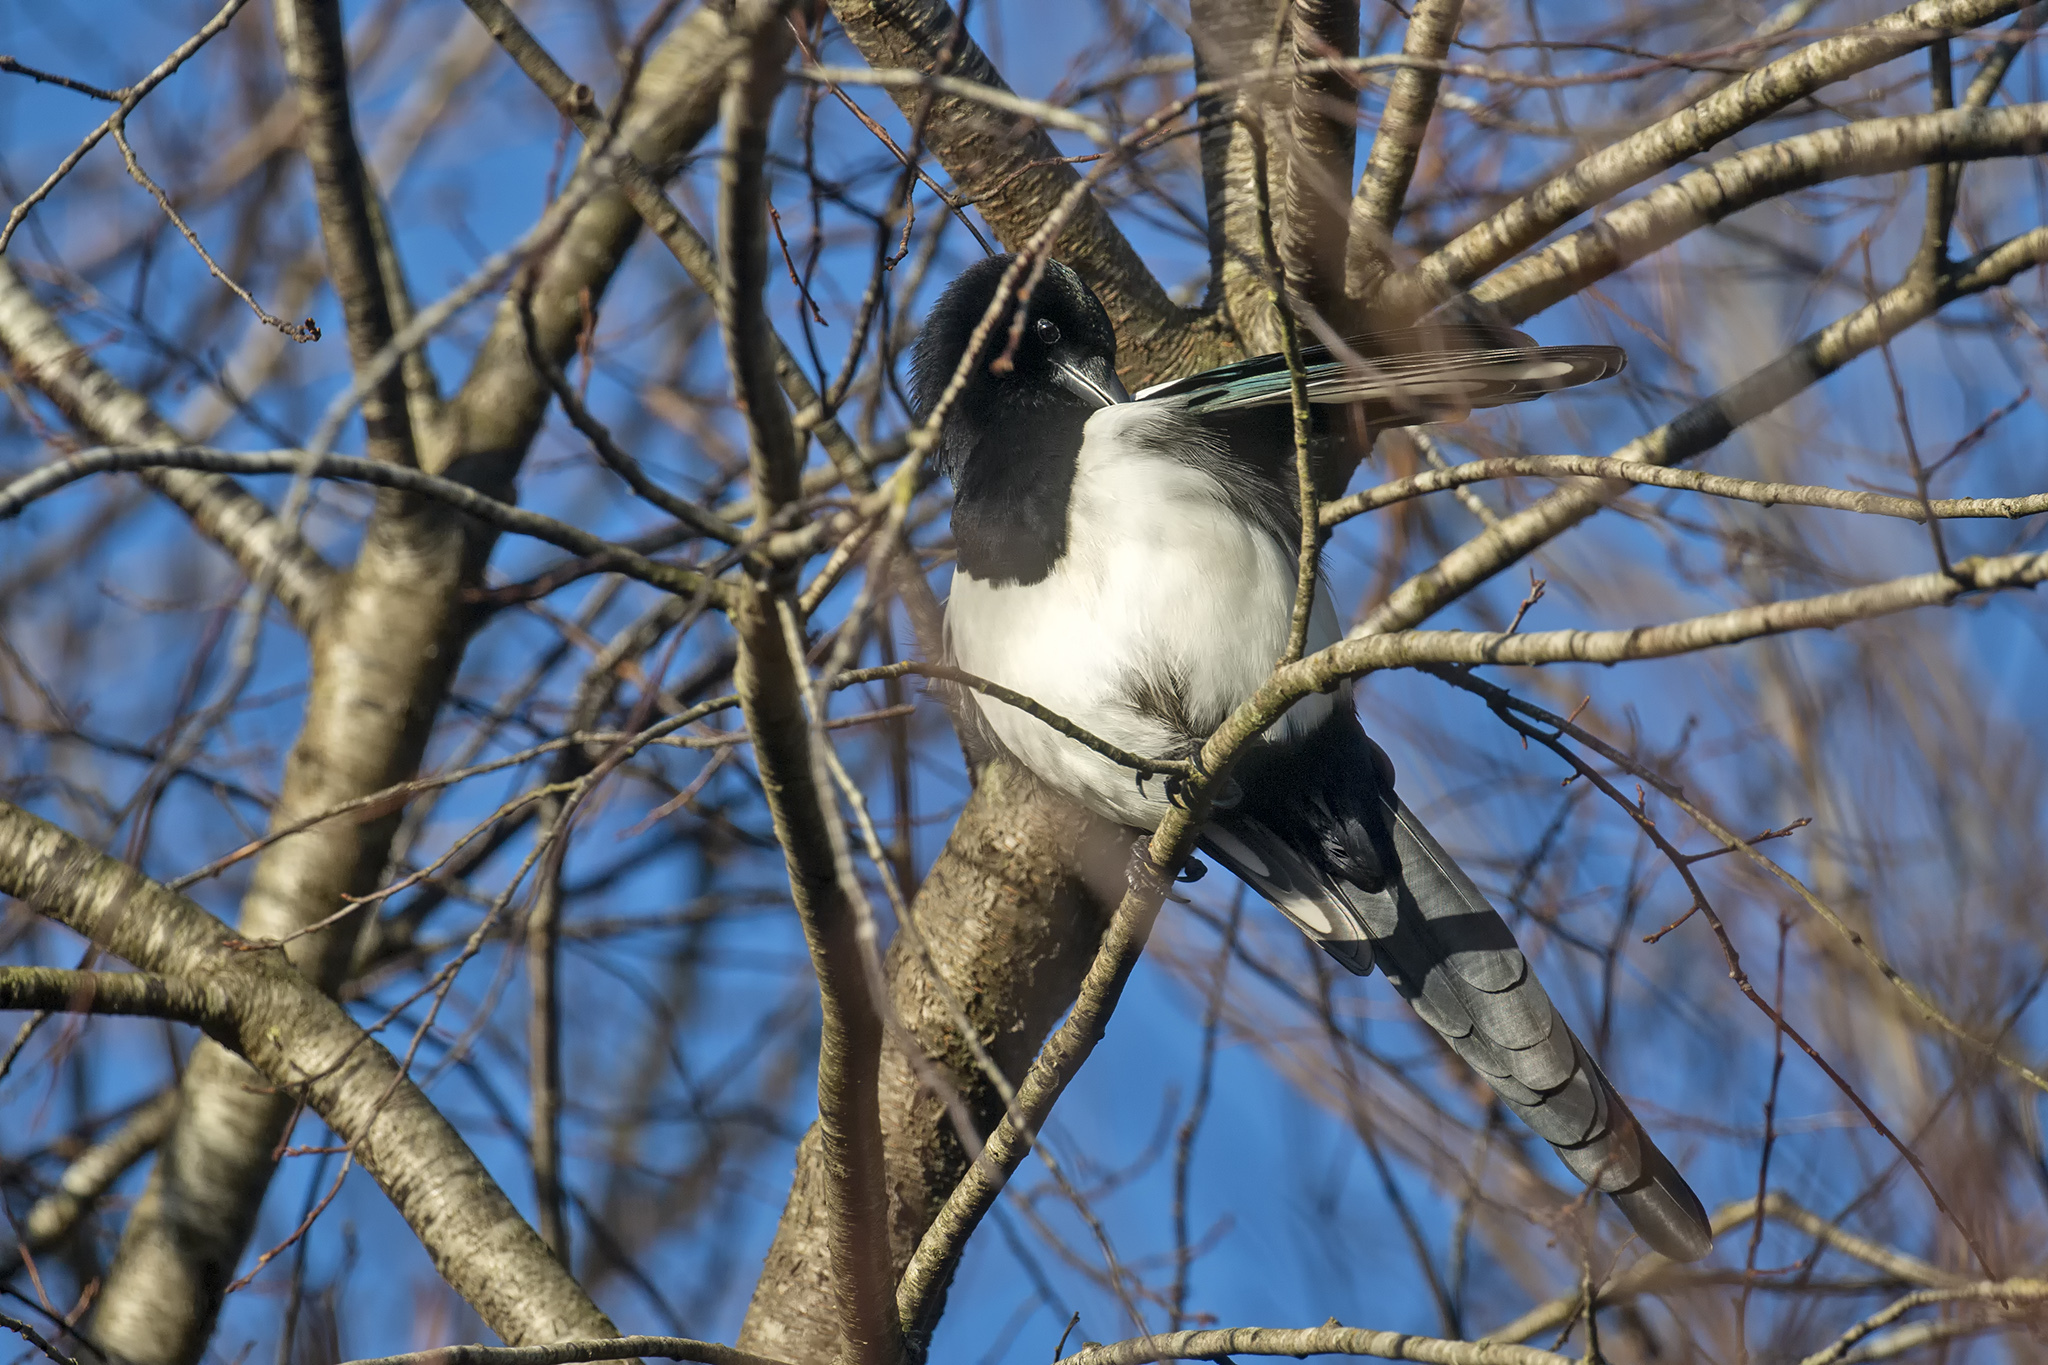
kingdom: Animalia
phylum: Chordata
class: Aves
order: Passeriformes
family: Corvidae
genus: Pica
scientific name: Pica pica
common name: Eurasian magpie
